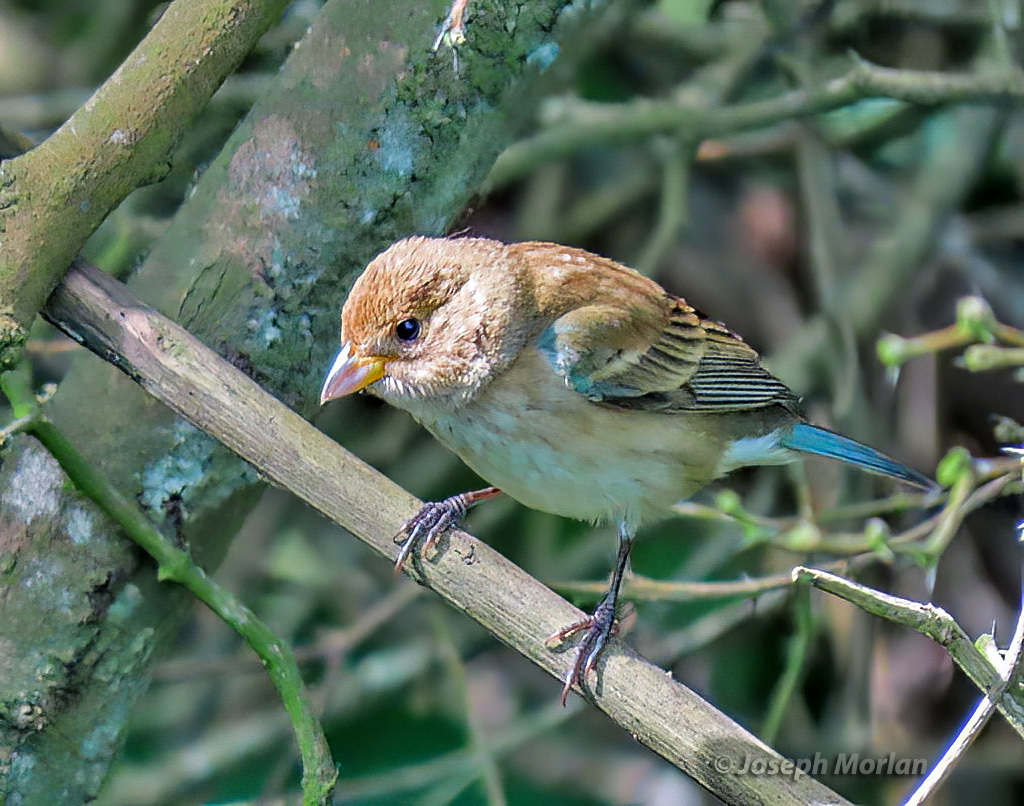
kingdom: Animalia
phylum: Chordata
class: Aves
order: Passeriformes
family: Cardinalidae
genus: Passerina
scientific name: Passerina cyanea
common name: Indigo bunting
